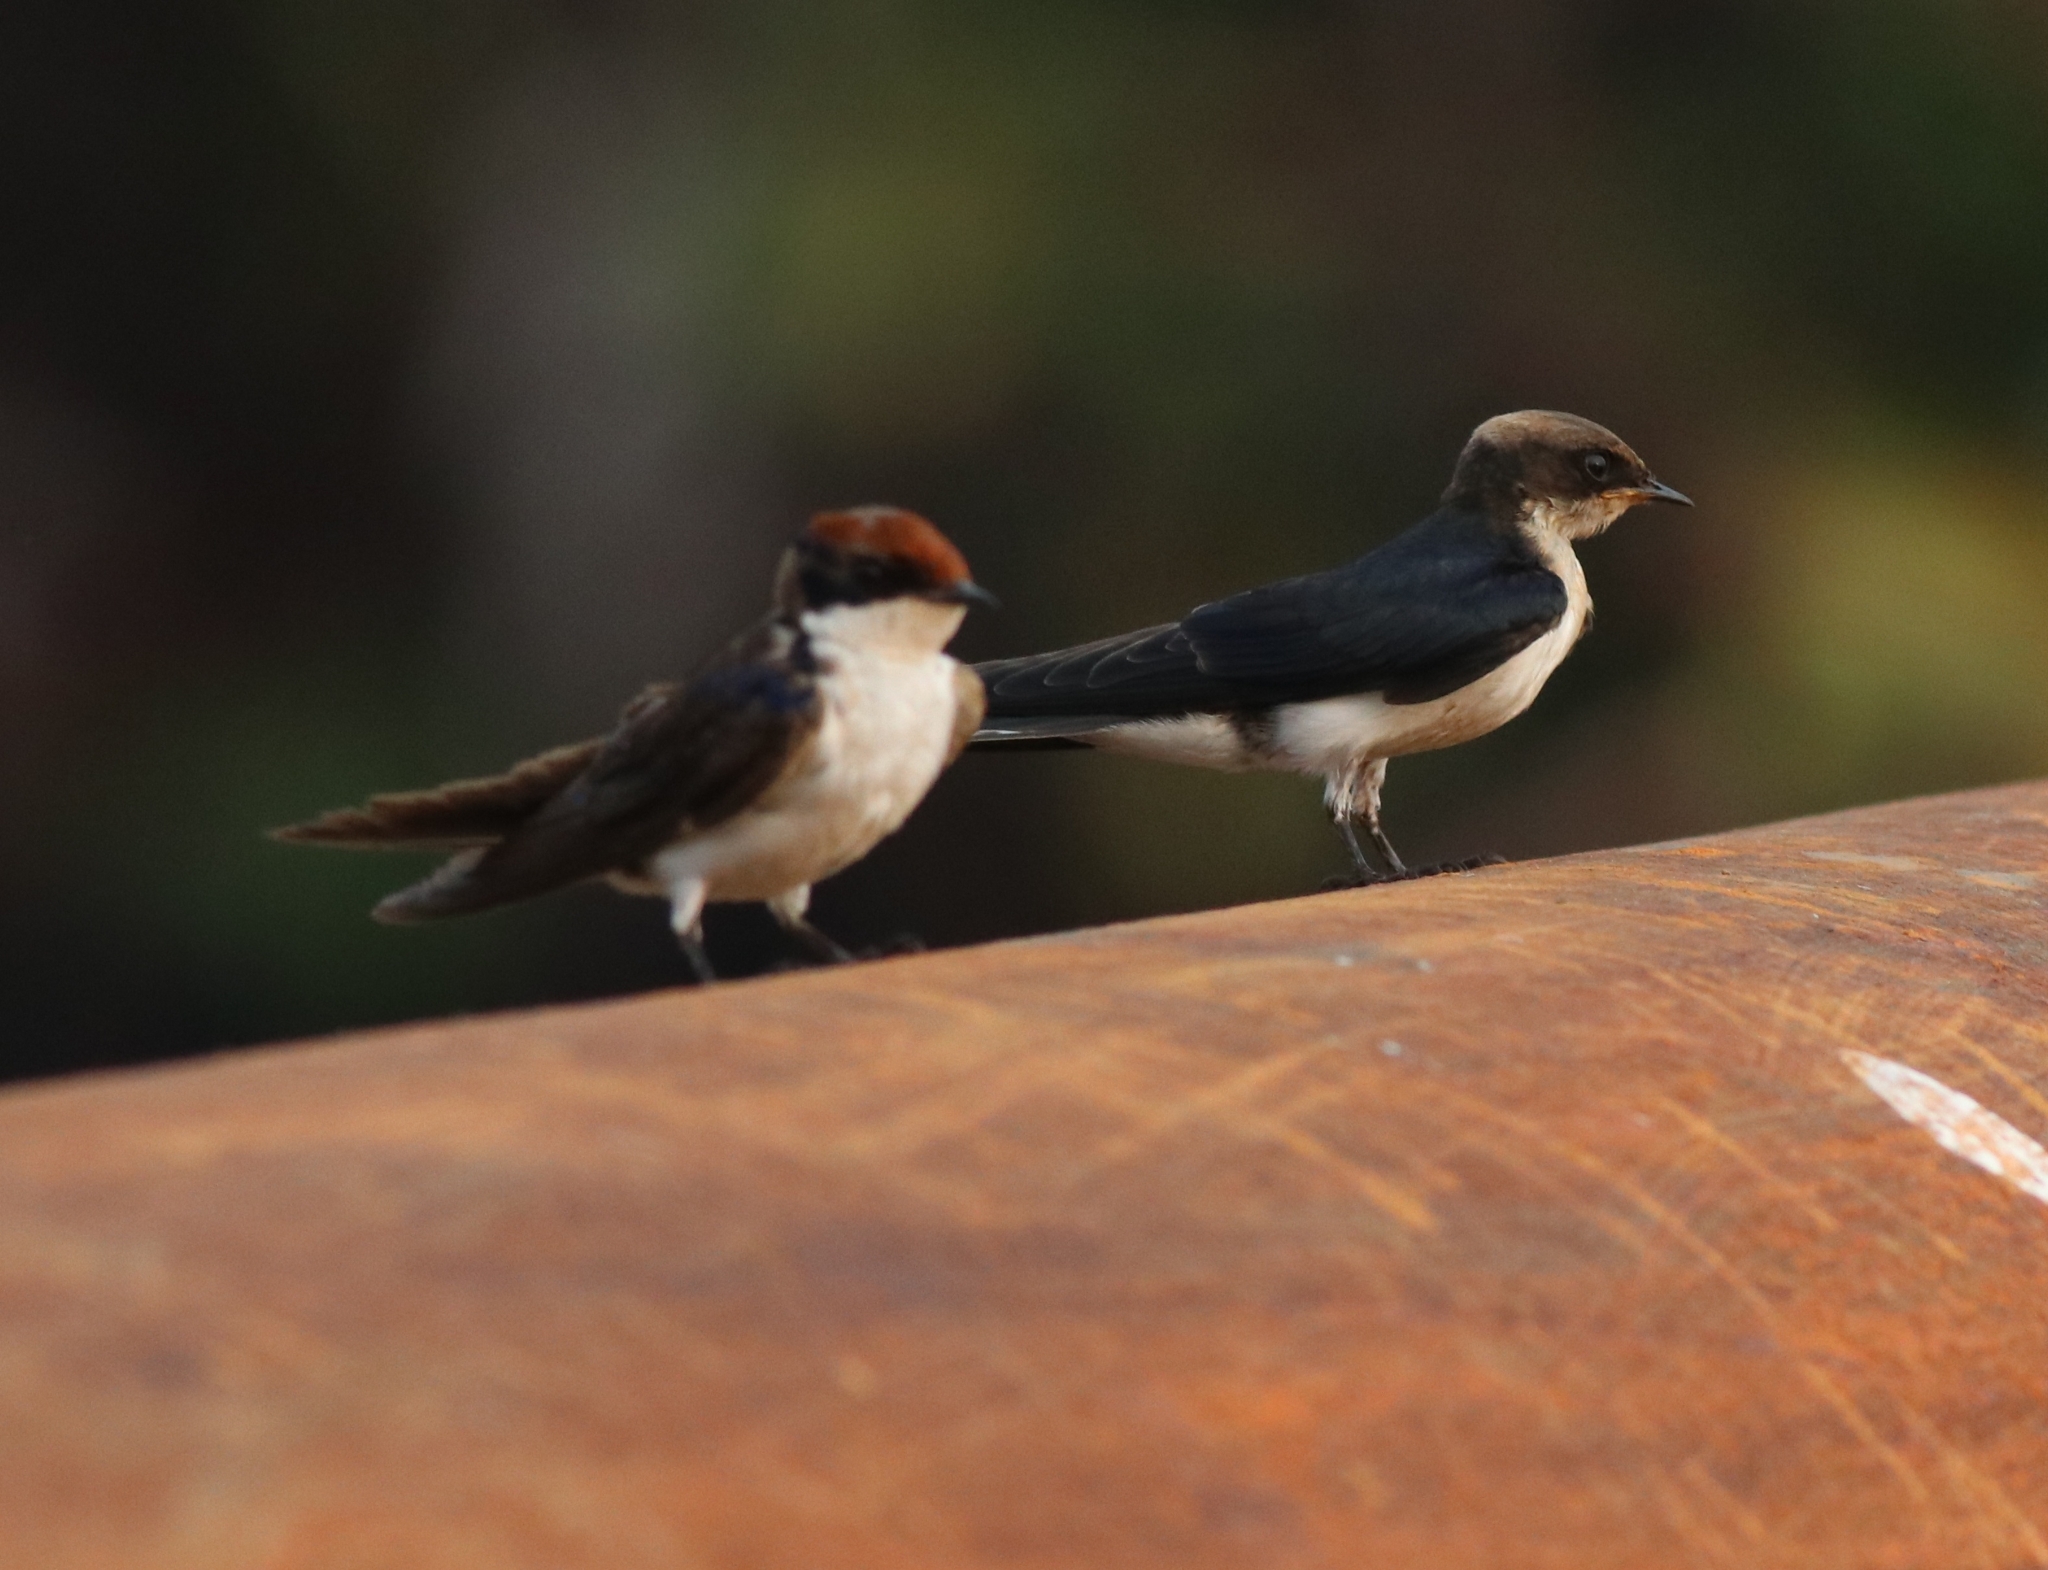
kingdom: Animalia
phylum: Chordata
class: Aves
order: Passeriformes
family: Hirundinidae
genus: Hirundo
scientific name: Hirundo smithii
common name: Wire-tailed swallow
